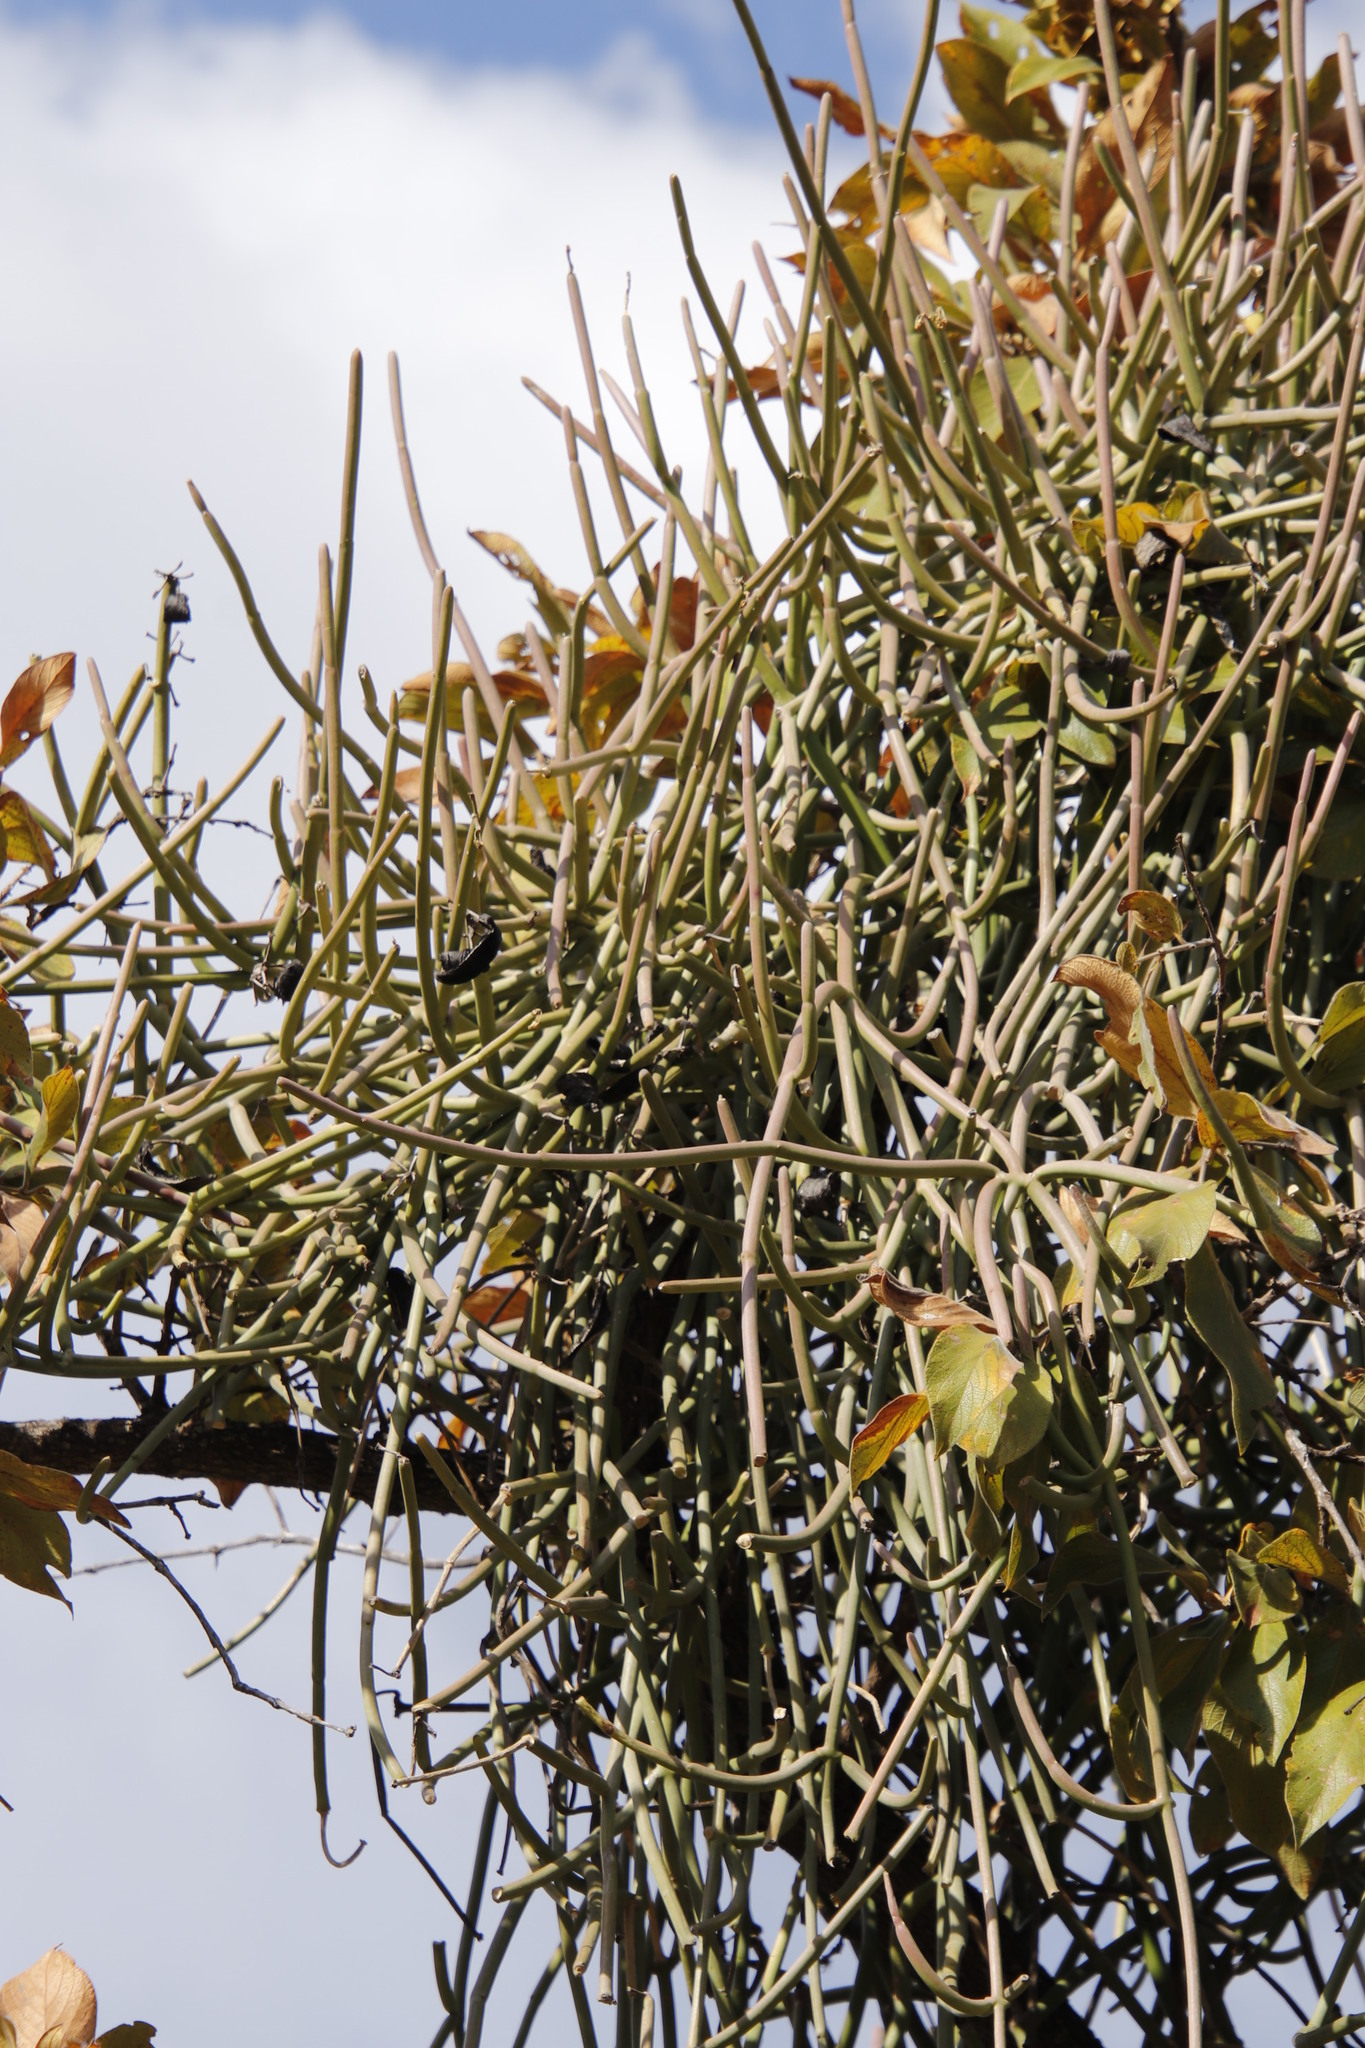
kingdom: Plantae
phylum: Tracheophyta
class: Magnoliopsida
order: Gentianales
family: Apocynaceae
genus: Cynanchum
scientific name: Cynanchum viminale
